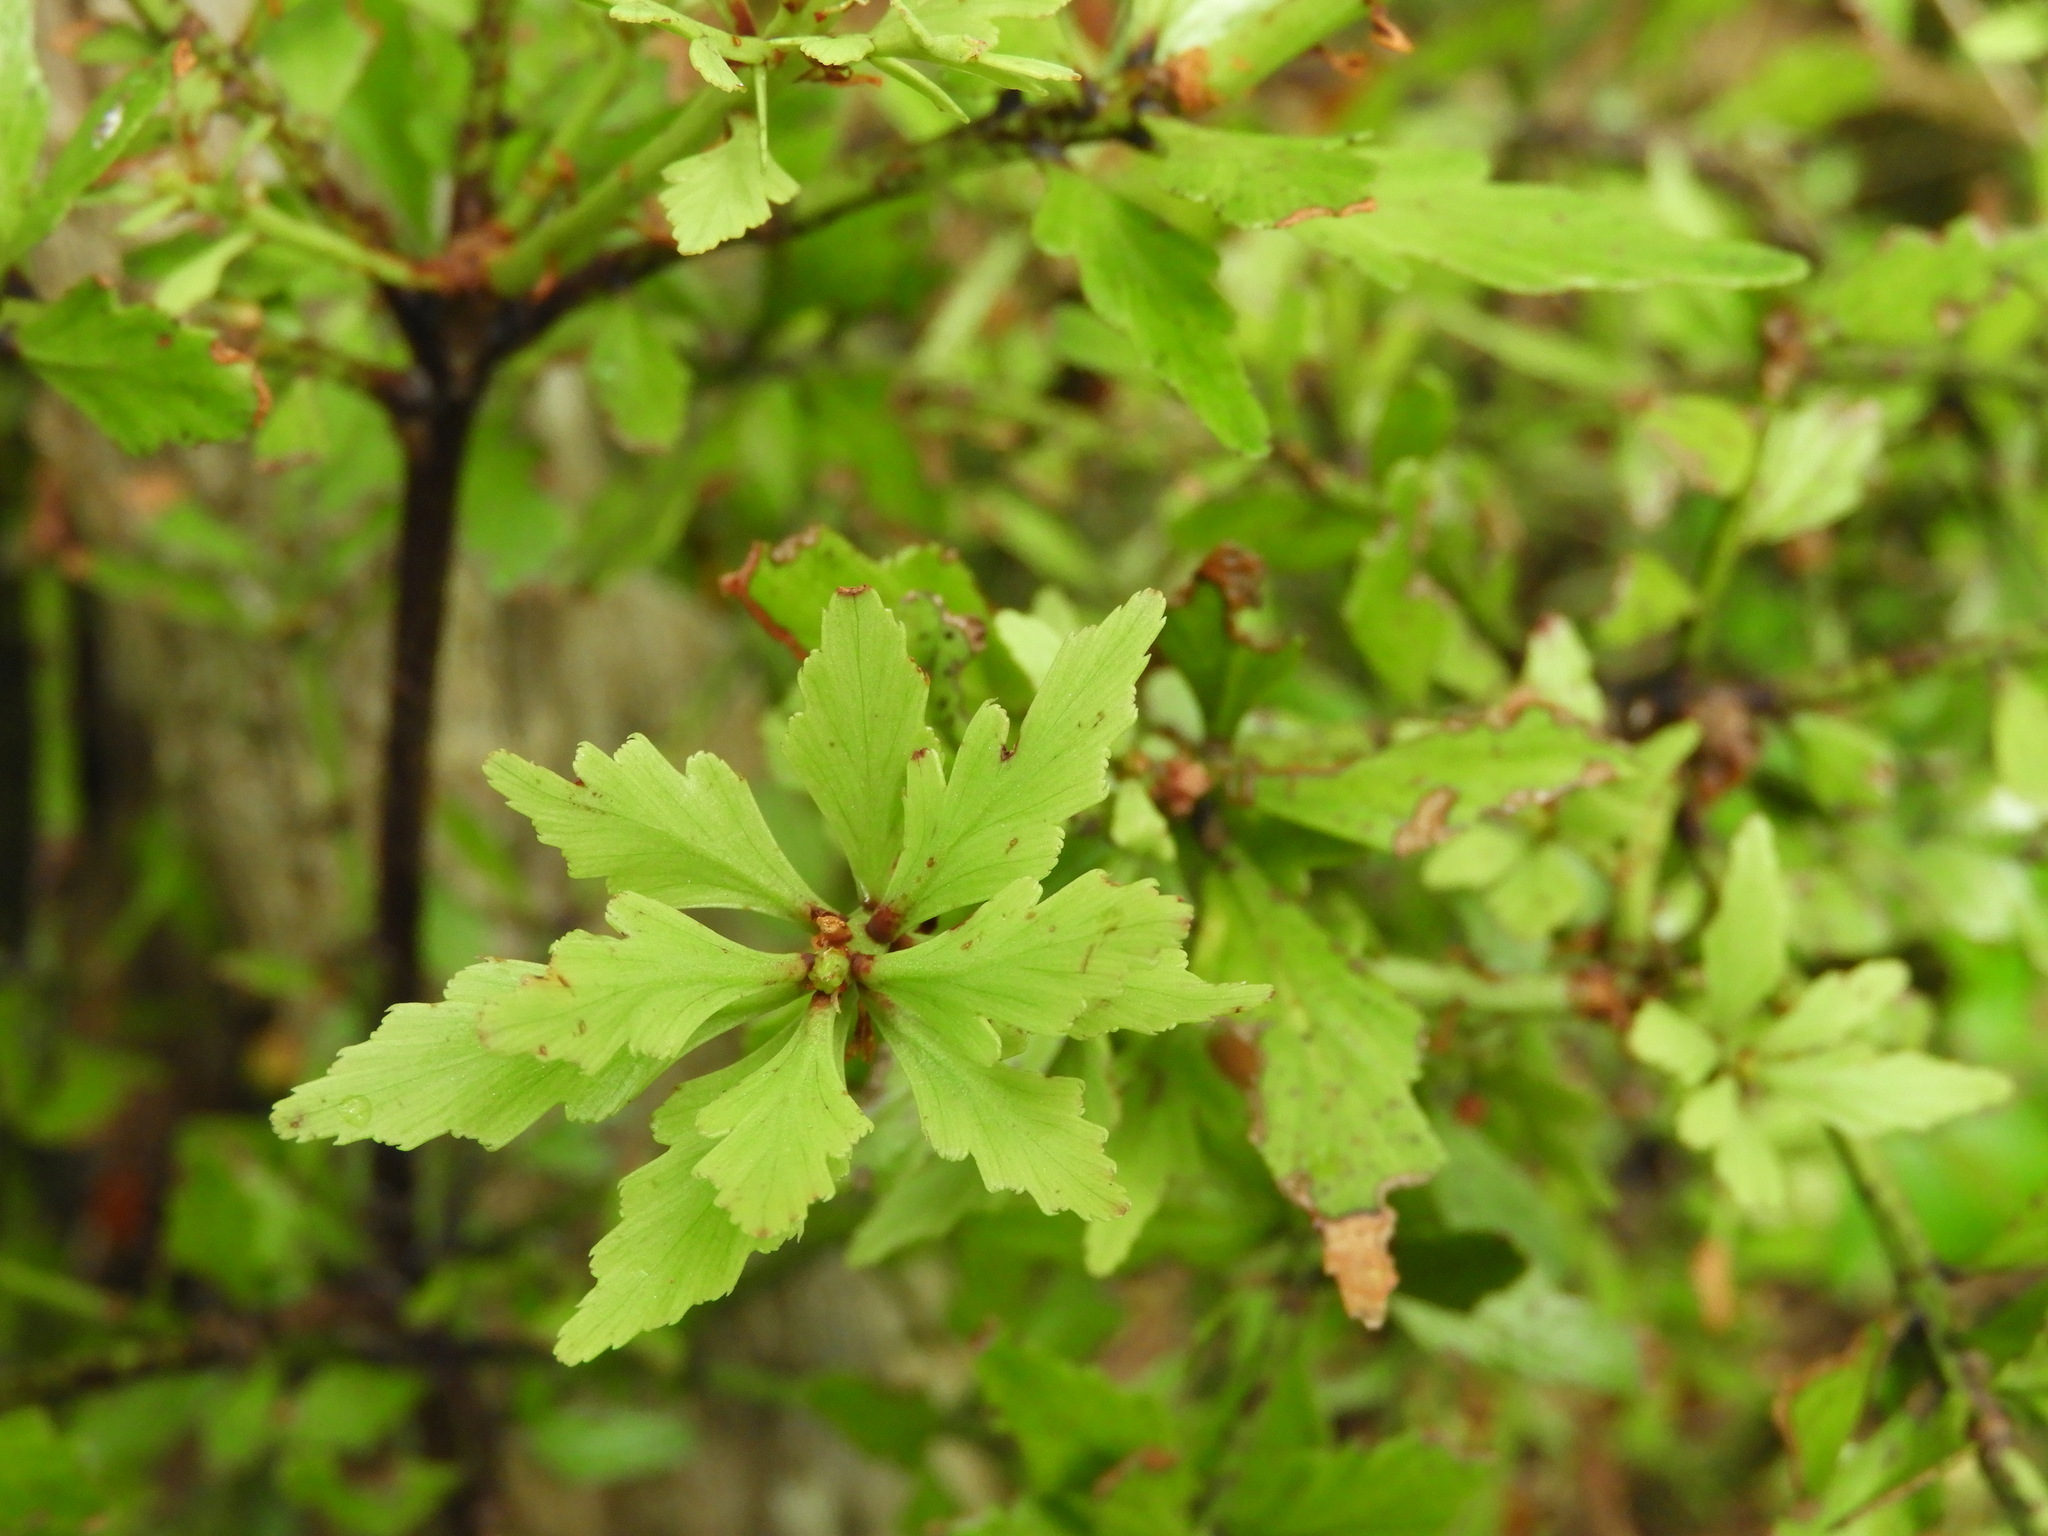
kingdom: Plantae
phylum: Tracheophyta
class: Pinopsida
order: Pinales
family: Phyllocladaceae
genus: Phyllocladus
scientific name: Phyllocladus trichomanoides
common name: Celery pine
